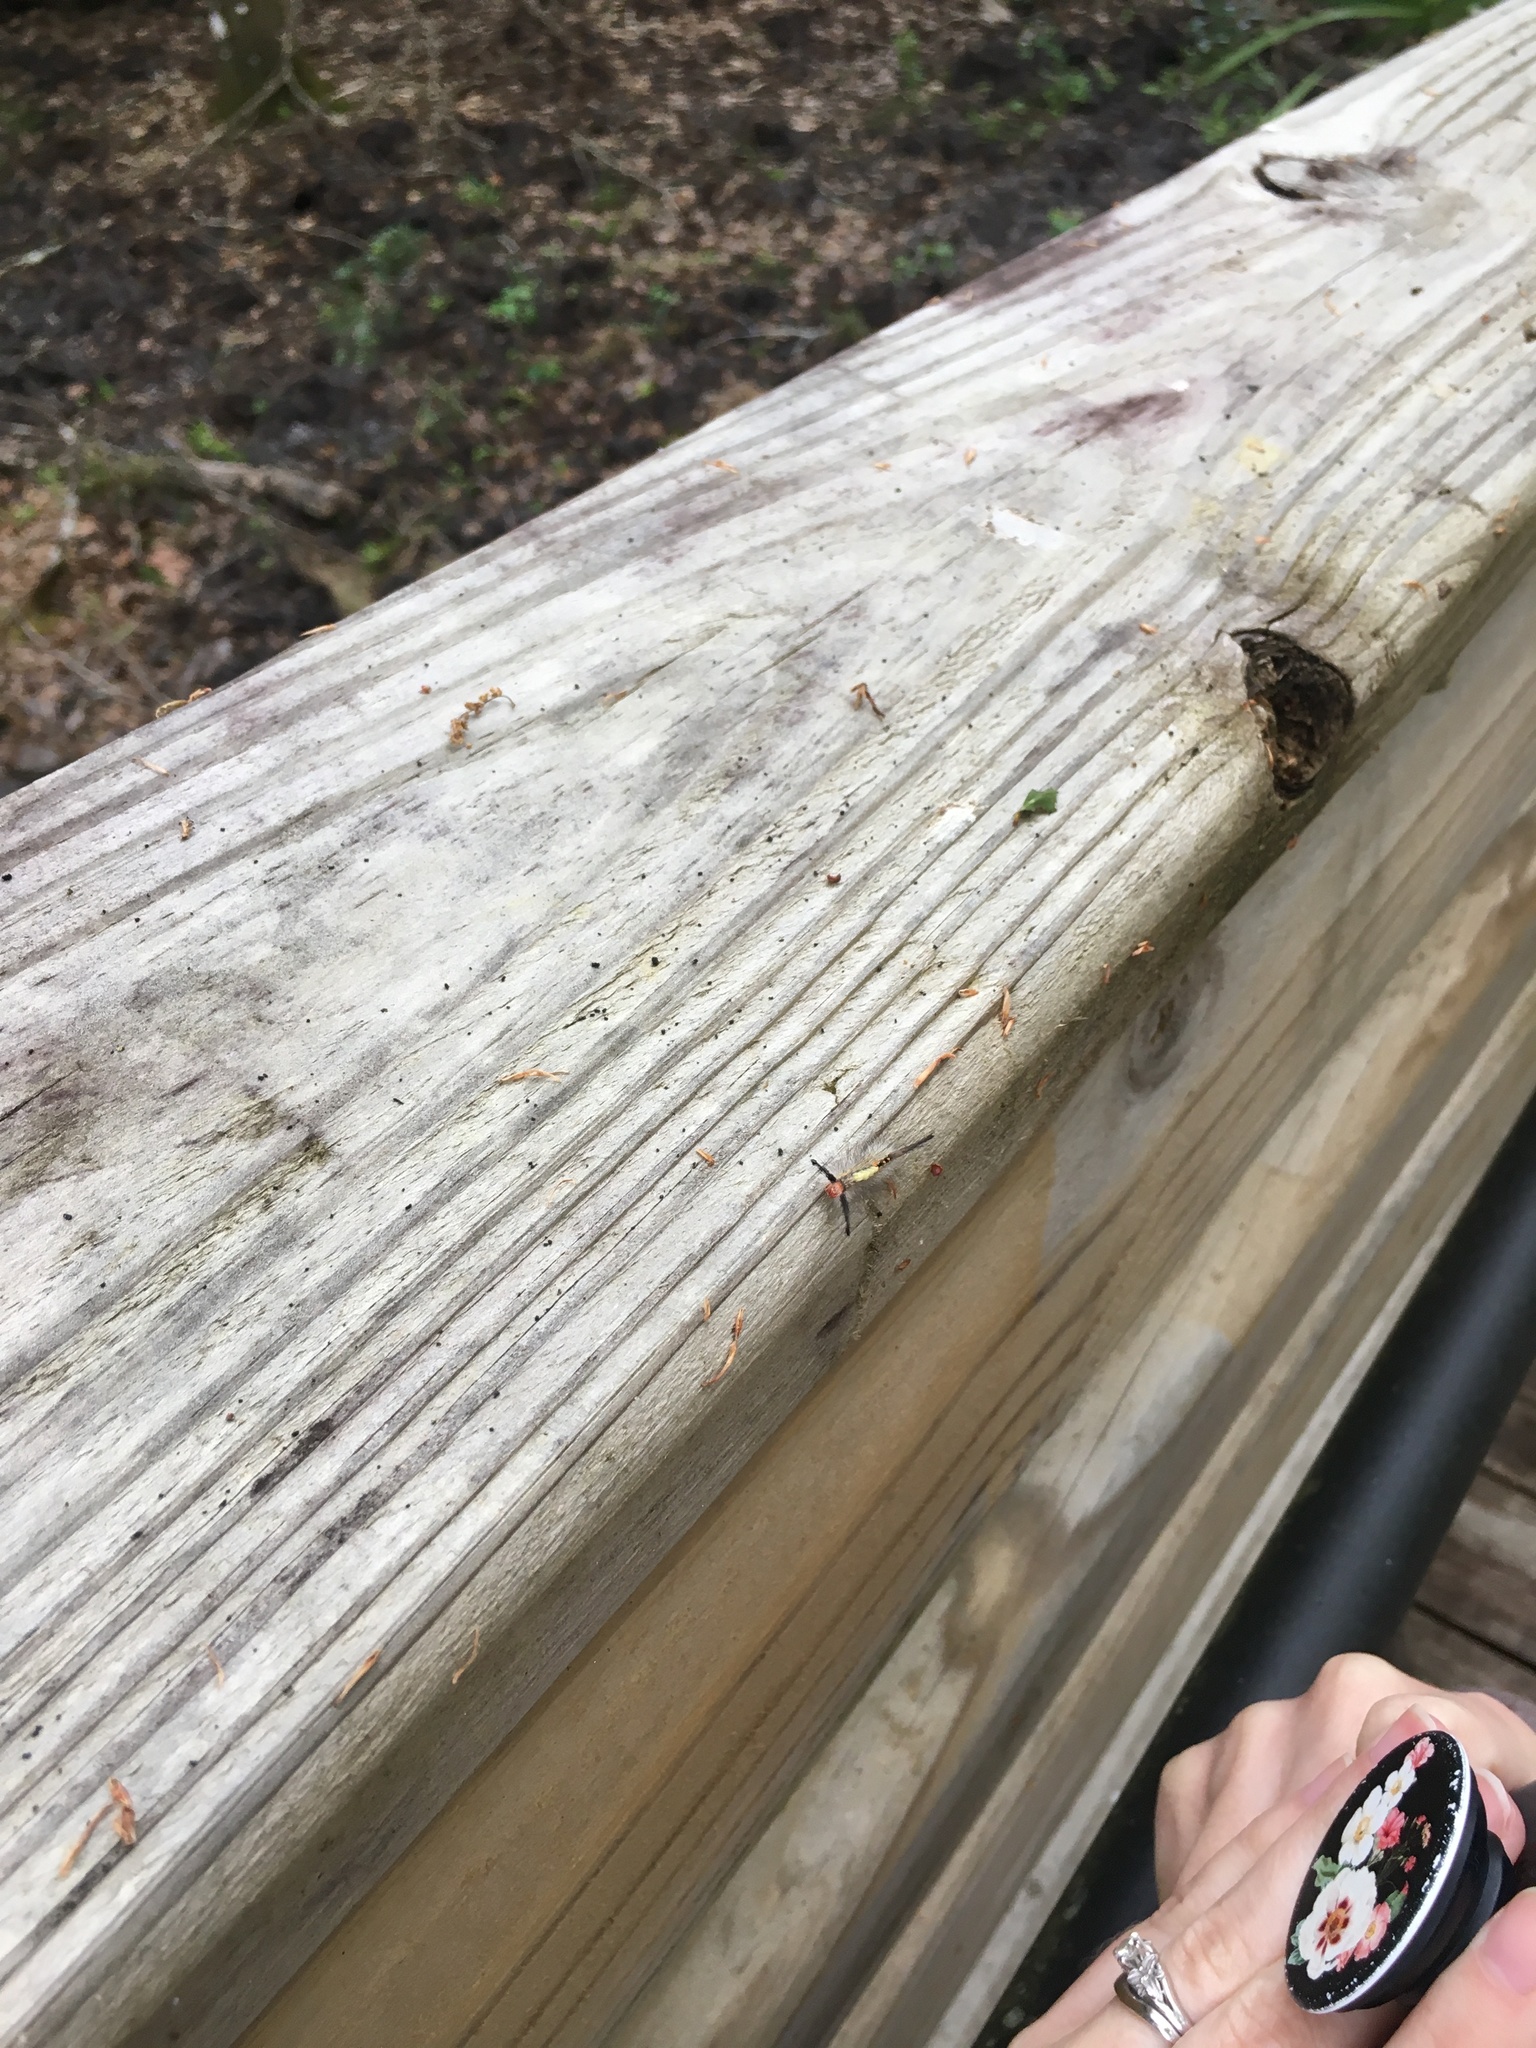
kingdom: Animalia
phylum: Arthropoda
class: Insecta
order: Lepidoptera
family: Erebidae
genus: Orgyia
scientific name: Orgyia detrita
